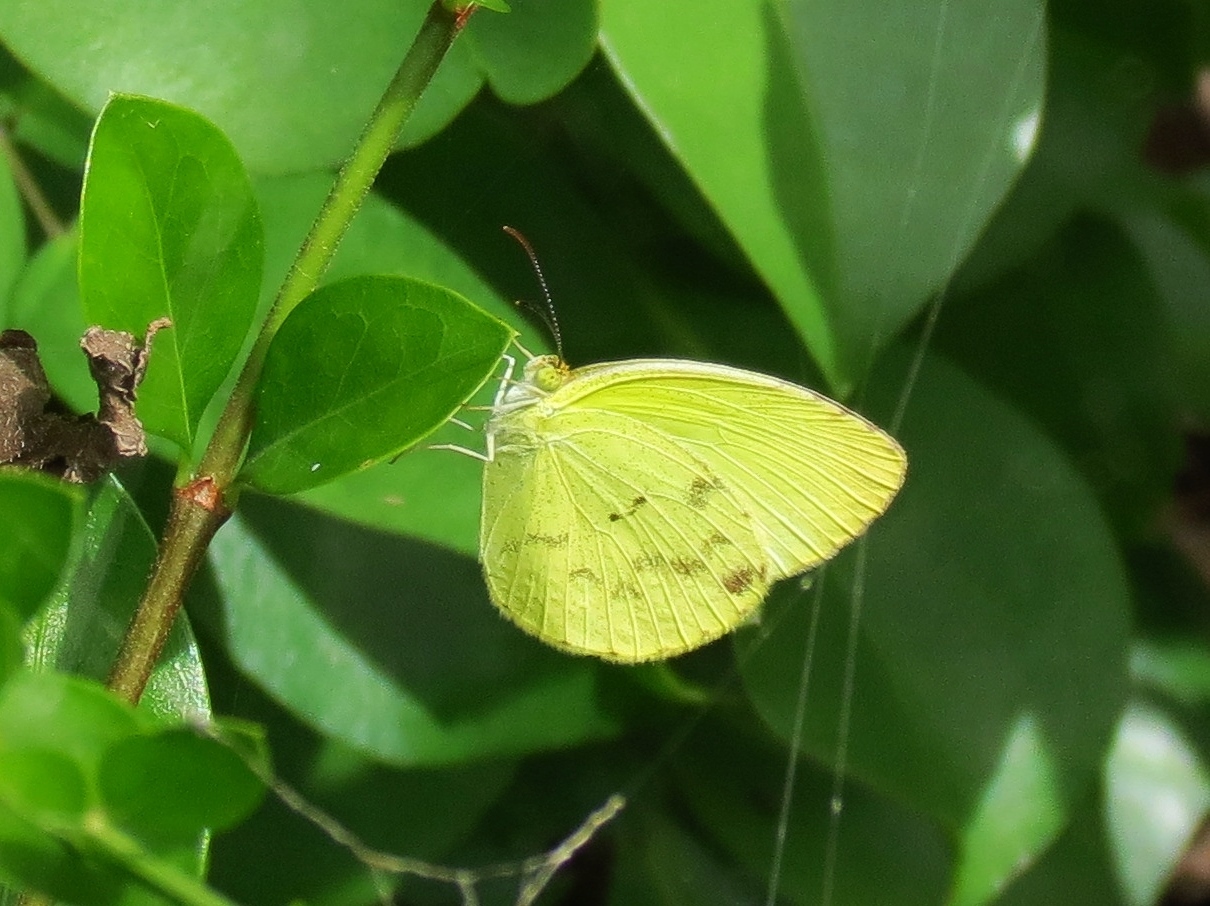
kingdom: Animalia
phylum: Arthropoda
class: Insecta
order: Lepidoptera
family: Pieridae
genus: Pyrisitia
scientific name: Pyrisitia venusta
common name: Pale yellow
